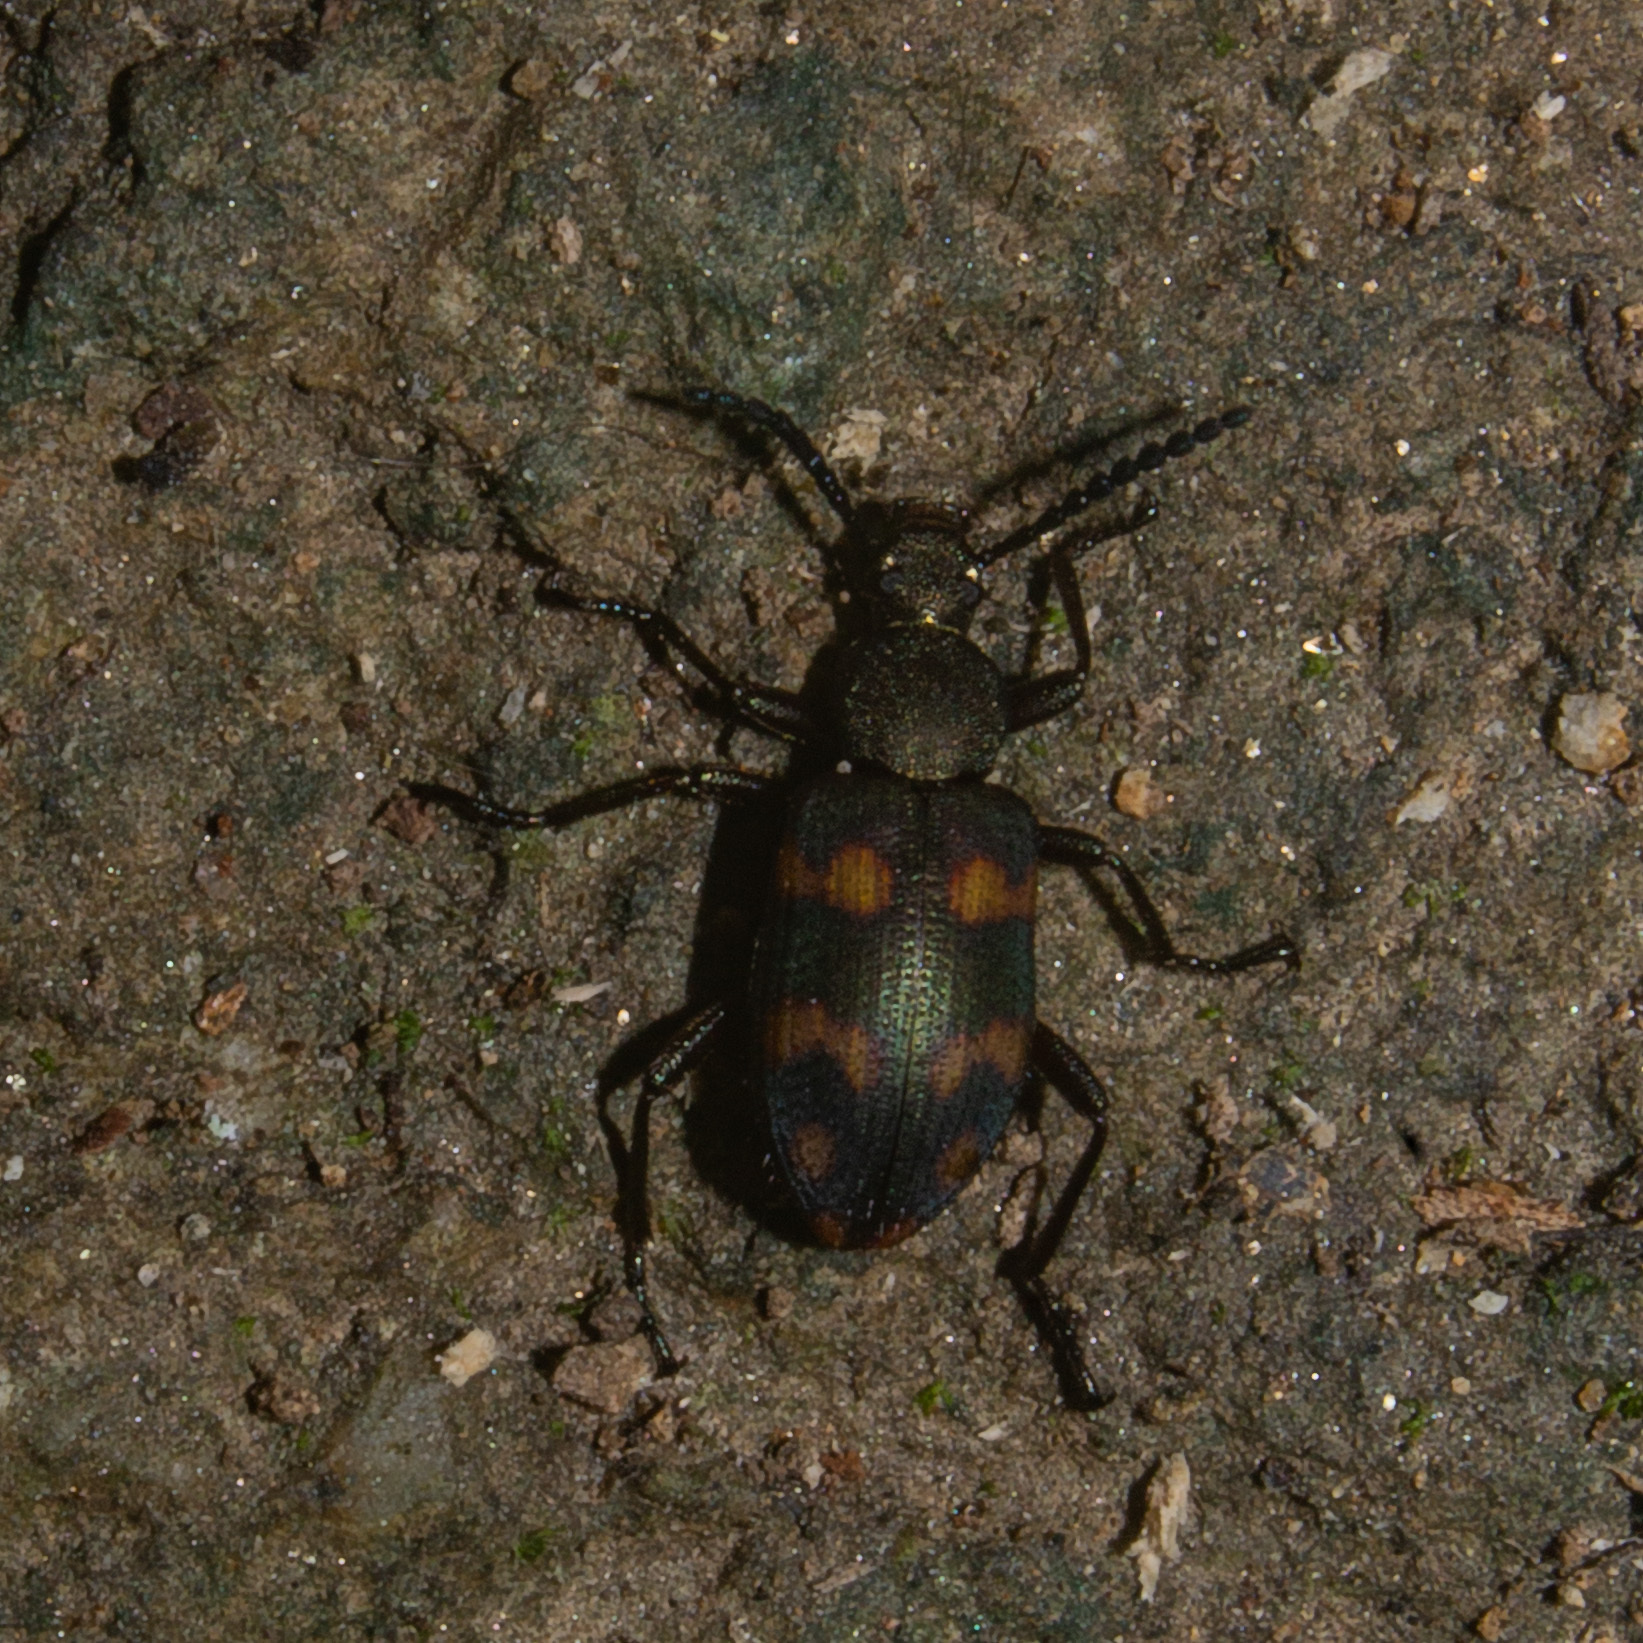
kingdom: Animalia
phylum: Arthropoda
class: Insecta
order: Coleoptera
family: Tenebrionidae
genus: Lystronychus
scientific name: Lystronychus
